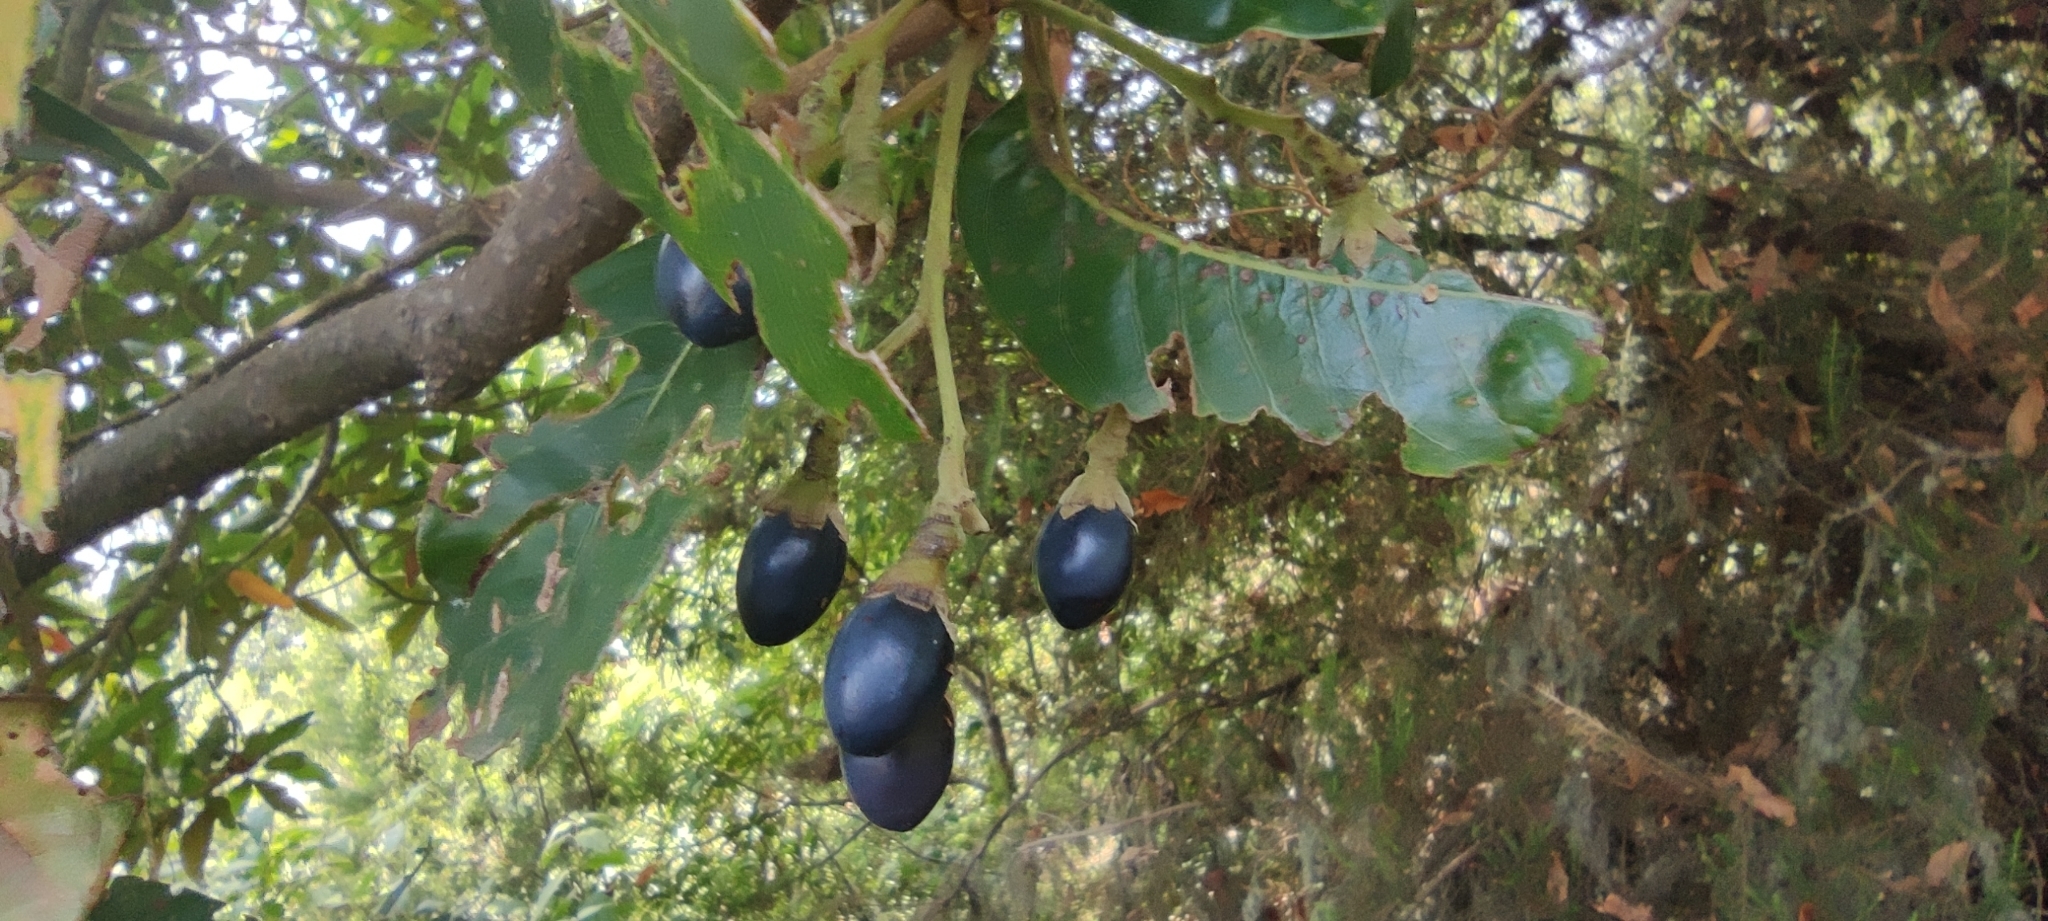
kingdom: Plantae
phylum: Tracheophyta
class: Magnoliopsida
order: Laurales
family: Lauraceae
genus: Persea
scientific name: Persea indica
